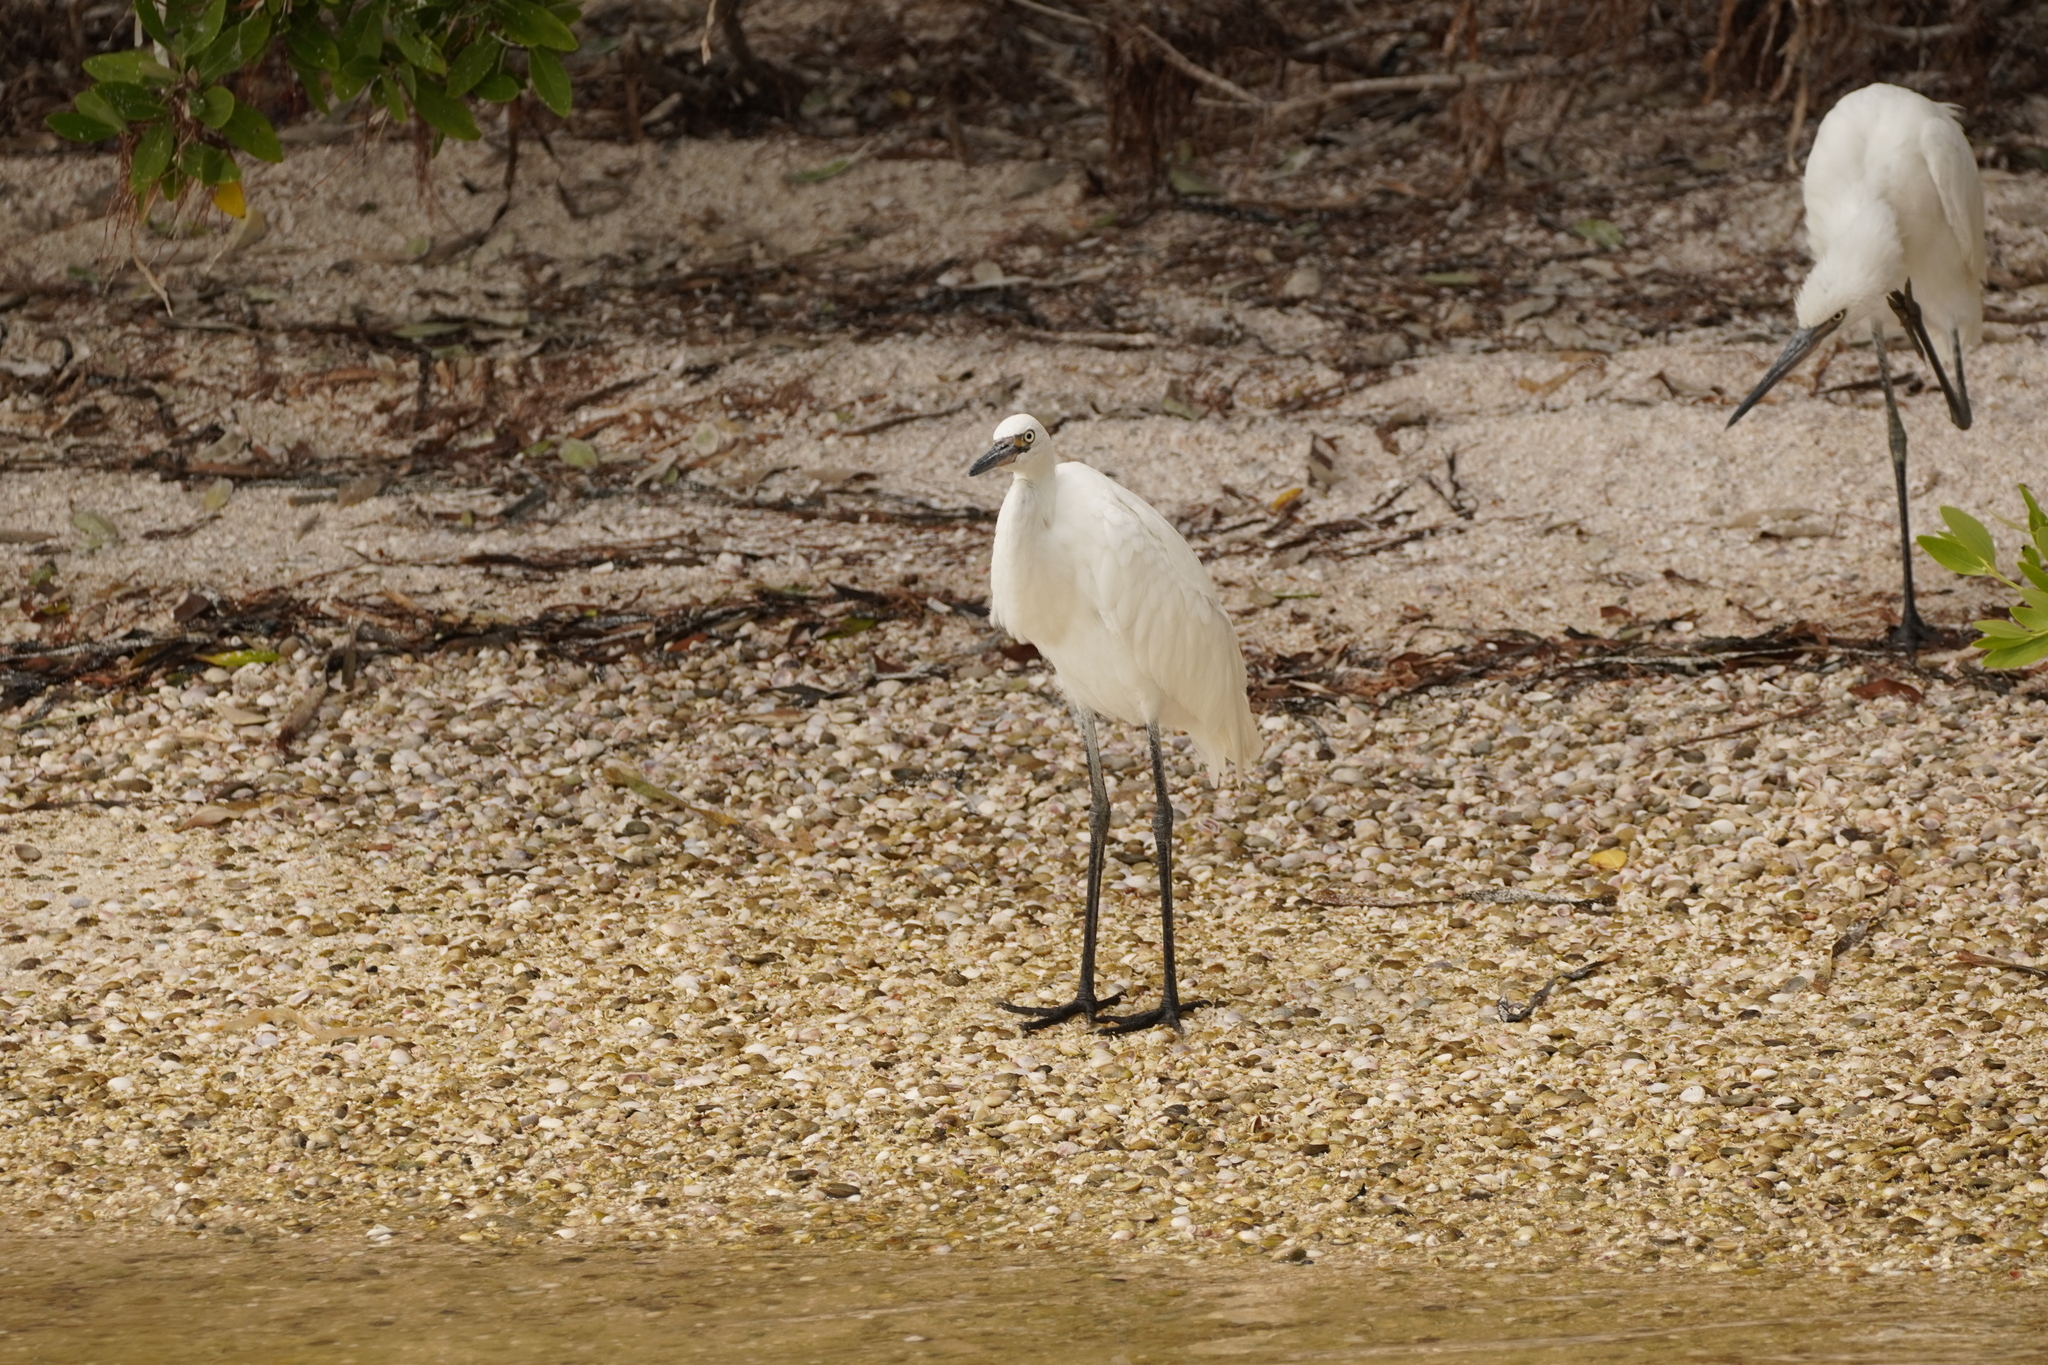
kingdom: Animalia
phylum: Chordata
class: Aves
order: Pelecaniformes
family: Ardeidae
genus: Egretta
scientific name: Egretta rufescens
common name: Reddish egret
